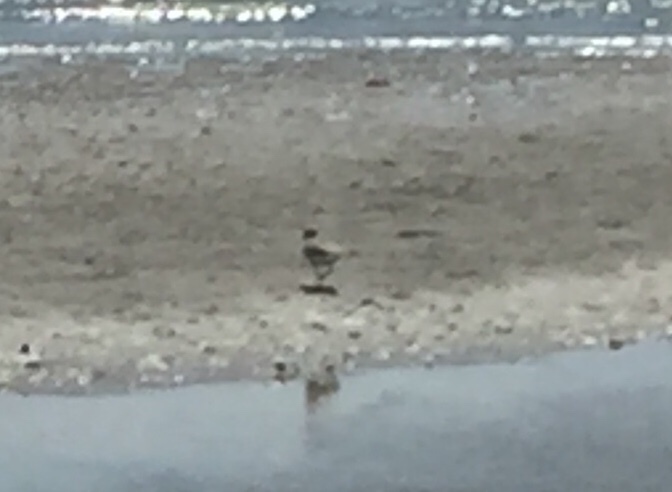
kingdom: Animalia
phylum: Chordata
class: Aves
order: Charadriiformes
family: Charadriidae
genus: Anarhynchus
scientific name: Anarhynchus
